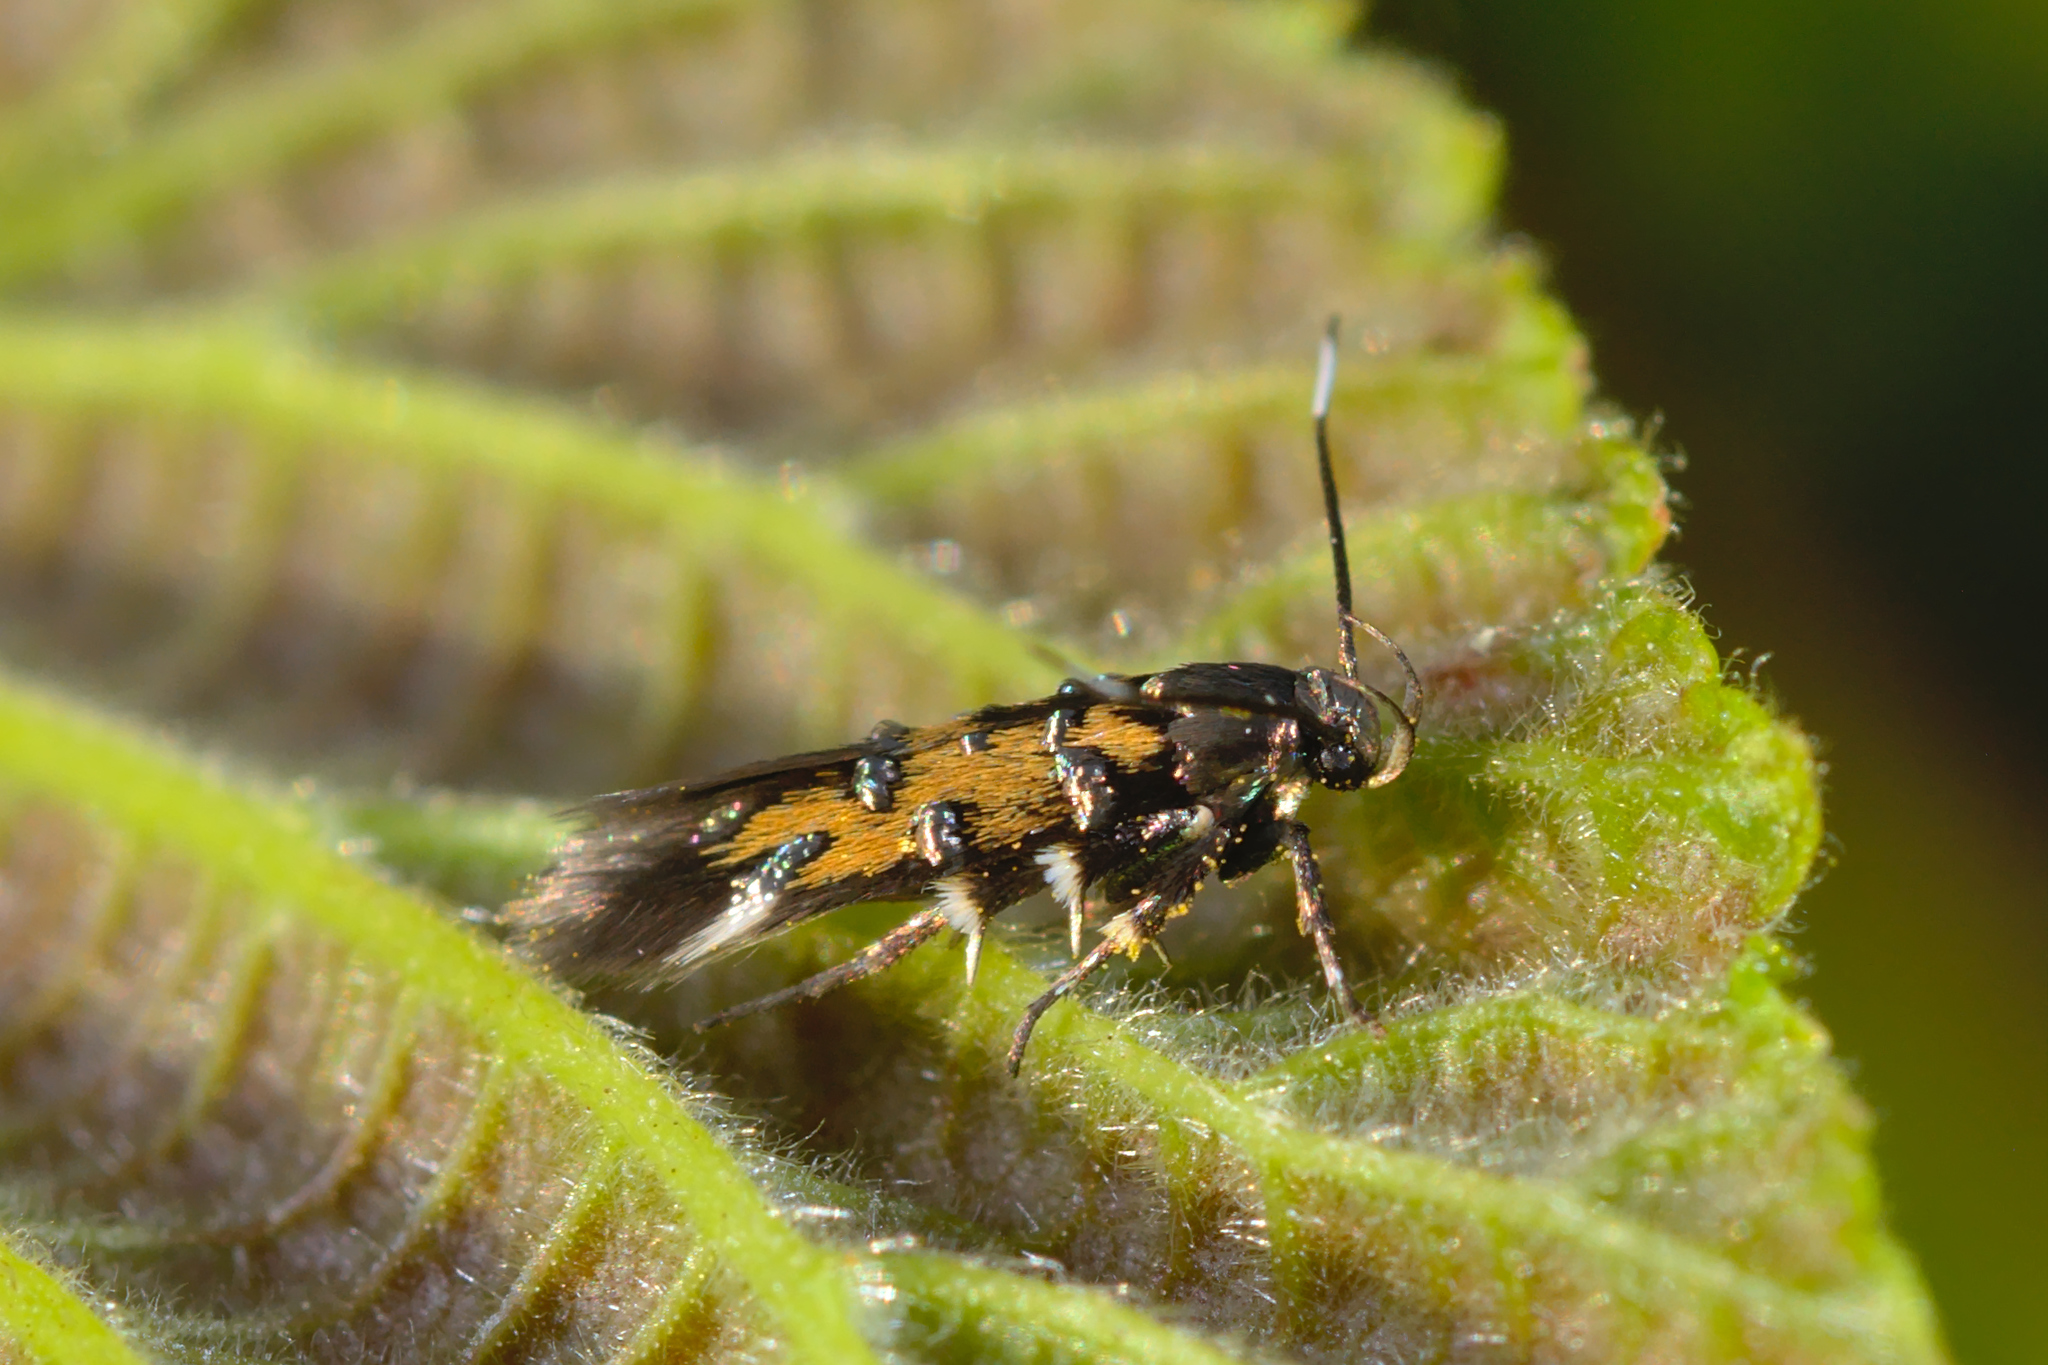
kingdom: Animalia
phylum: Arthropoda
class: Insecta
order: Lepidoptera
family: Cosmopterigidae
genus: Pancalia
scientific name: Pancalia leuwenhoekella
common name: Violet cosmet
